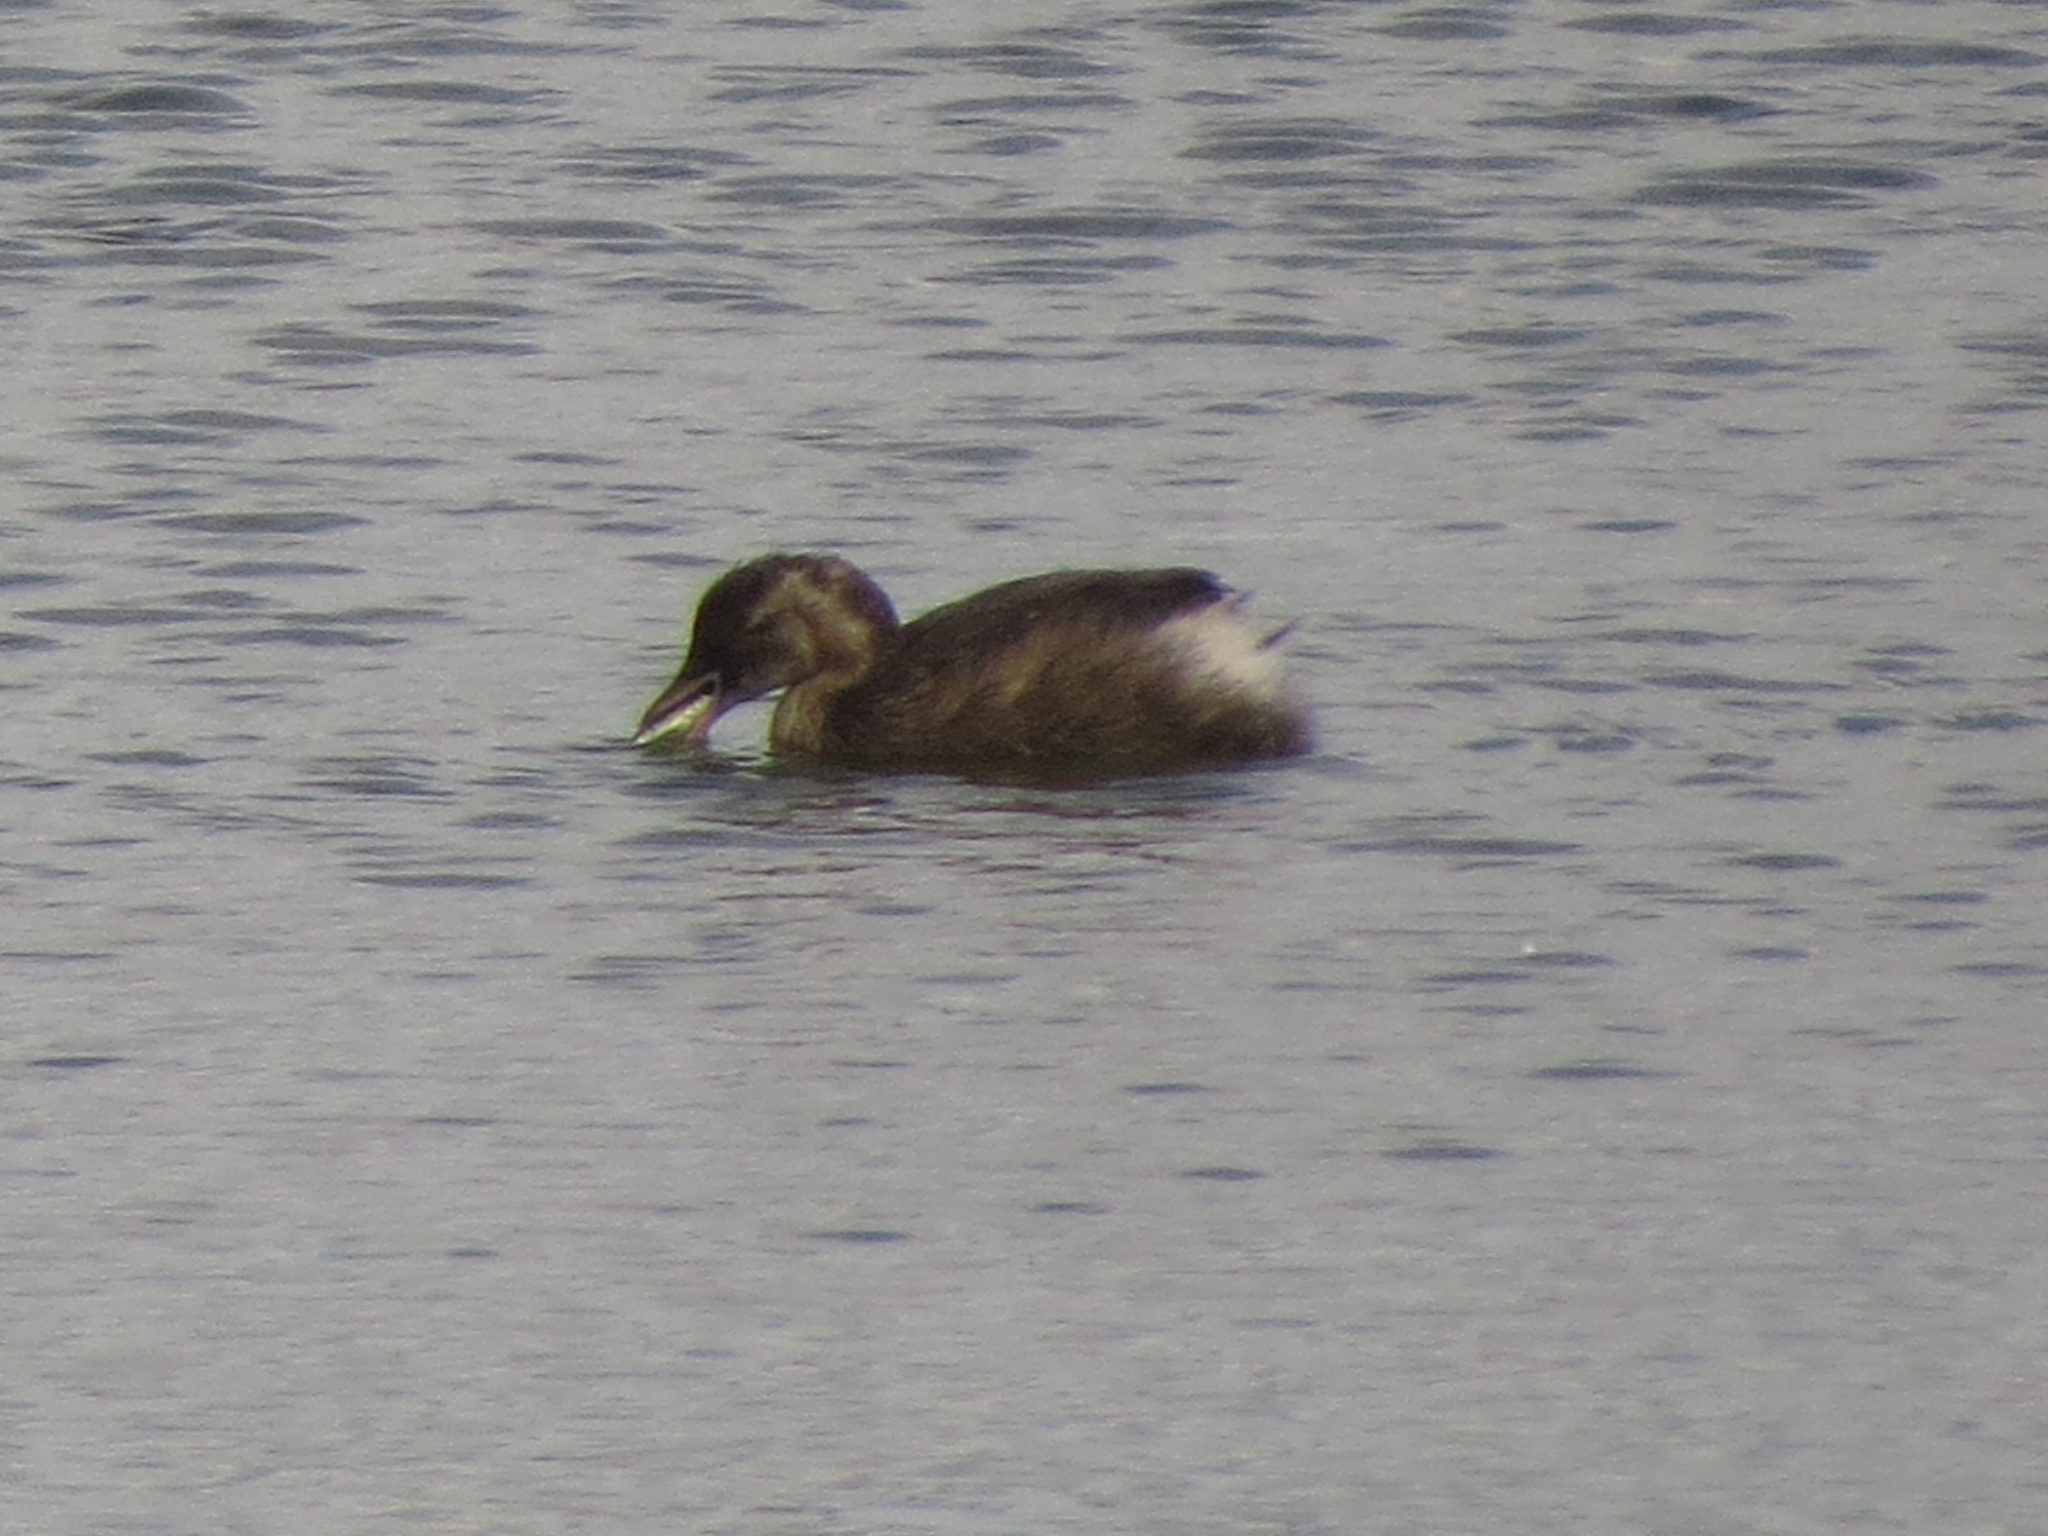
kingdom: Animalia
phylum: Chordata
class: Aves
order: Podicipediformes
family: Podicipedidae
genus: Tachybaptus
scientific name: Tachybaptus ruficollis
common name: Little grebe
